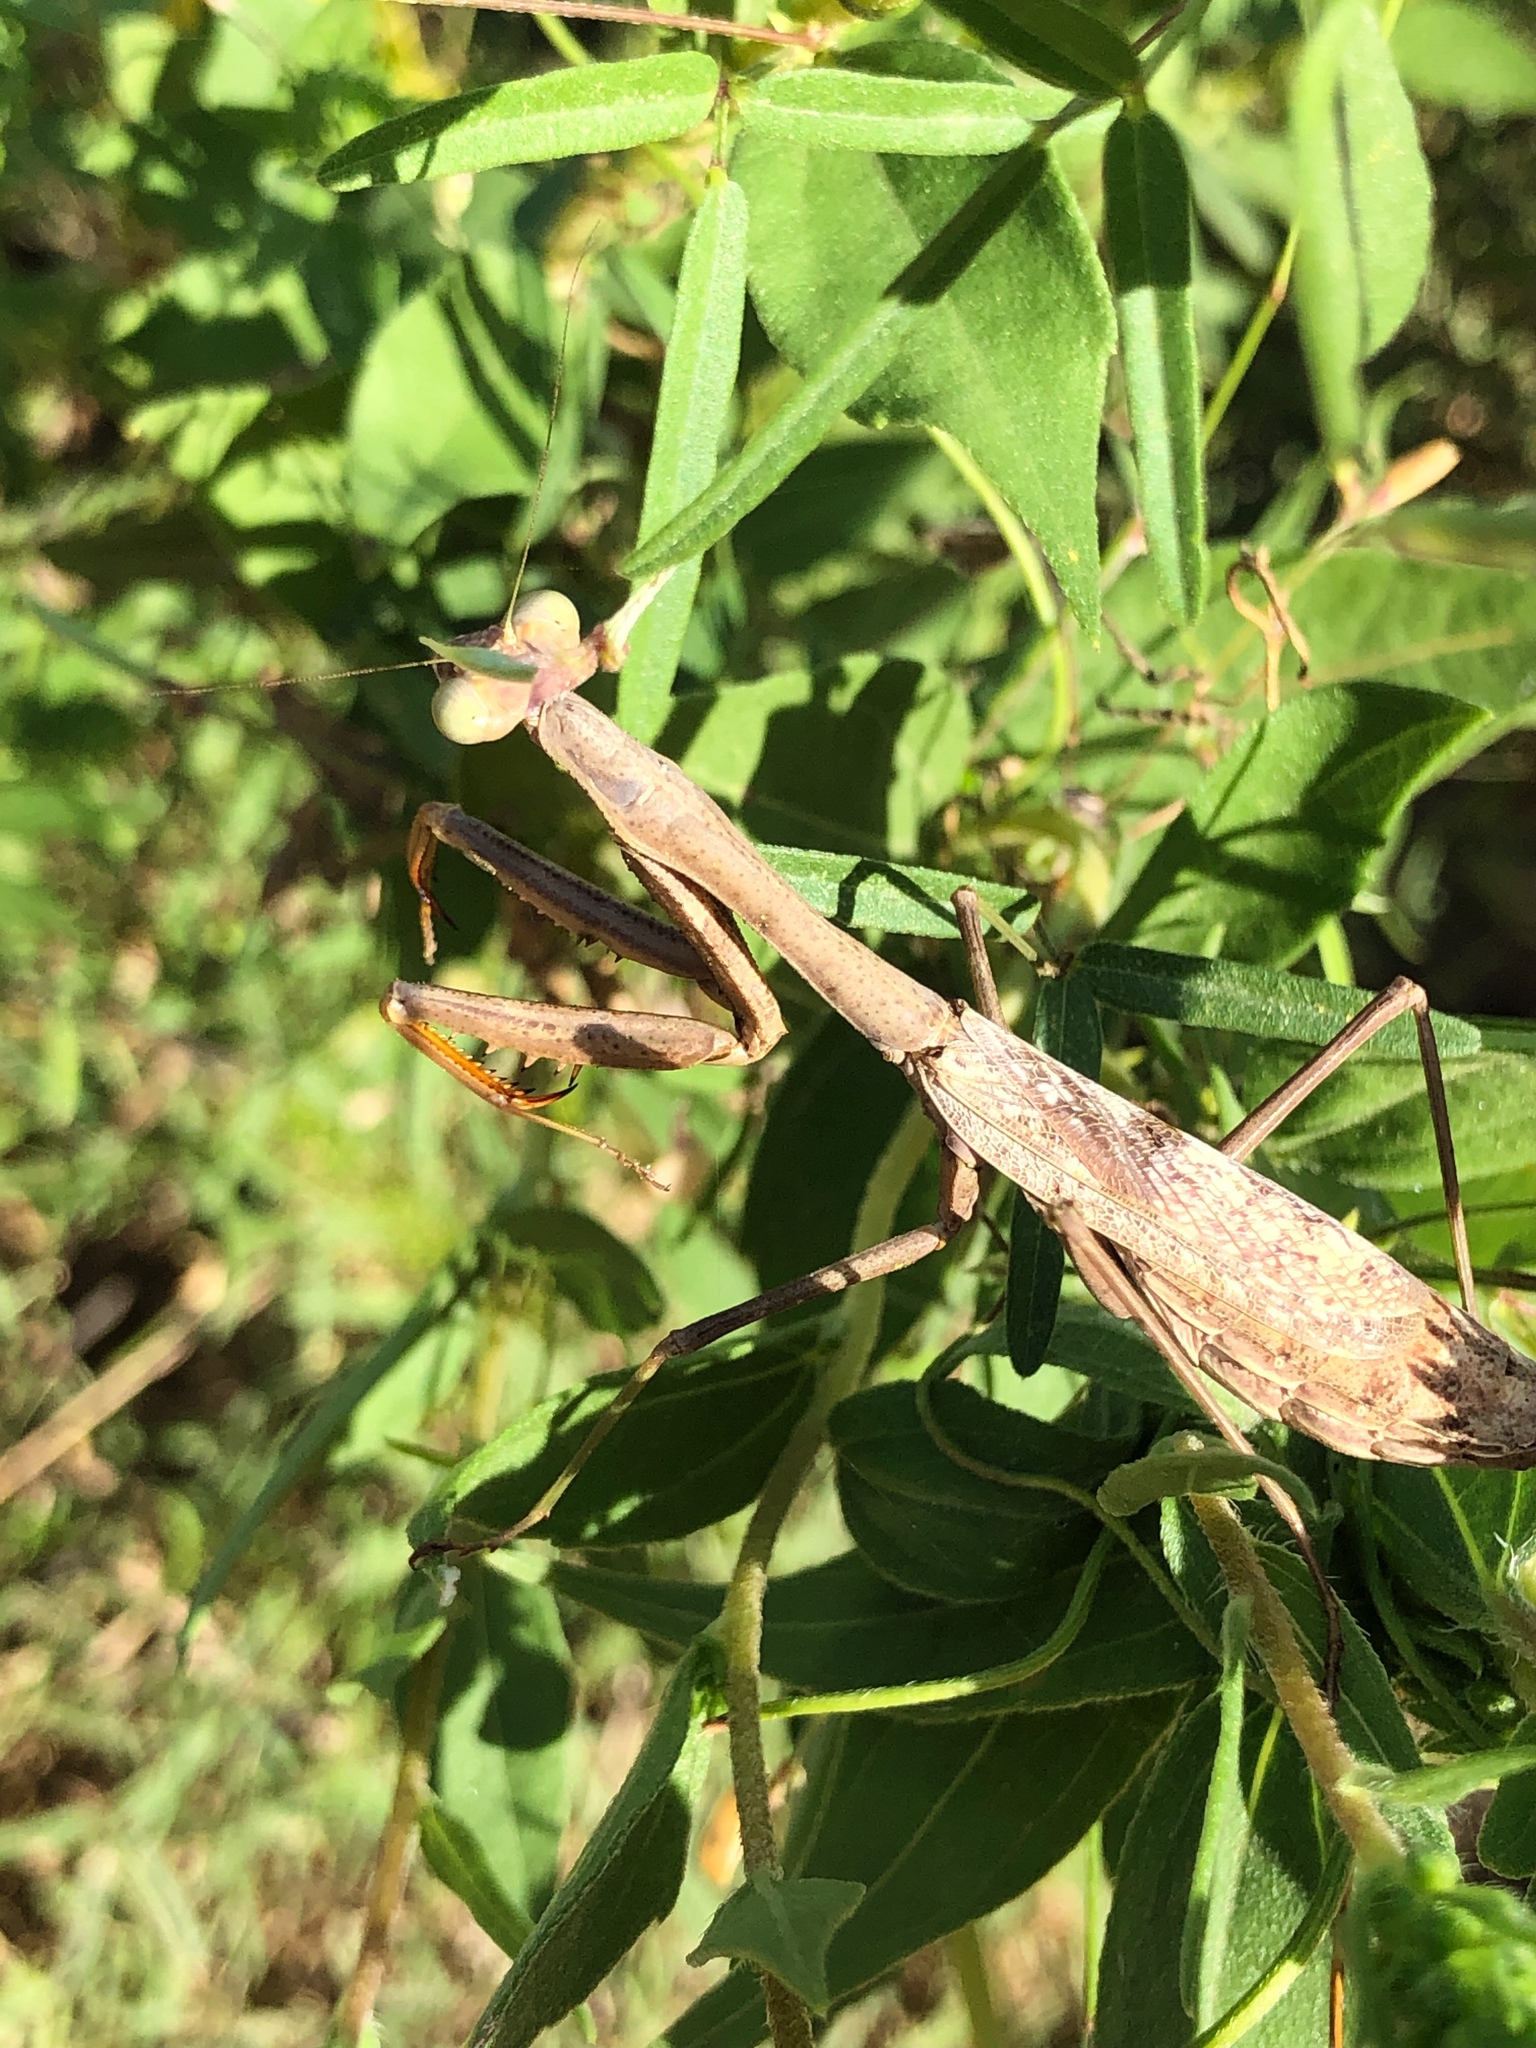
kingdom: Animalia
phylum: Arthropoda
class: Insecta
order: Mantodea
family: Mantidae
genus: Stagmomantis
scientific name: Stagmomantis carolina
